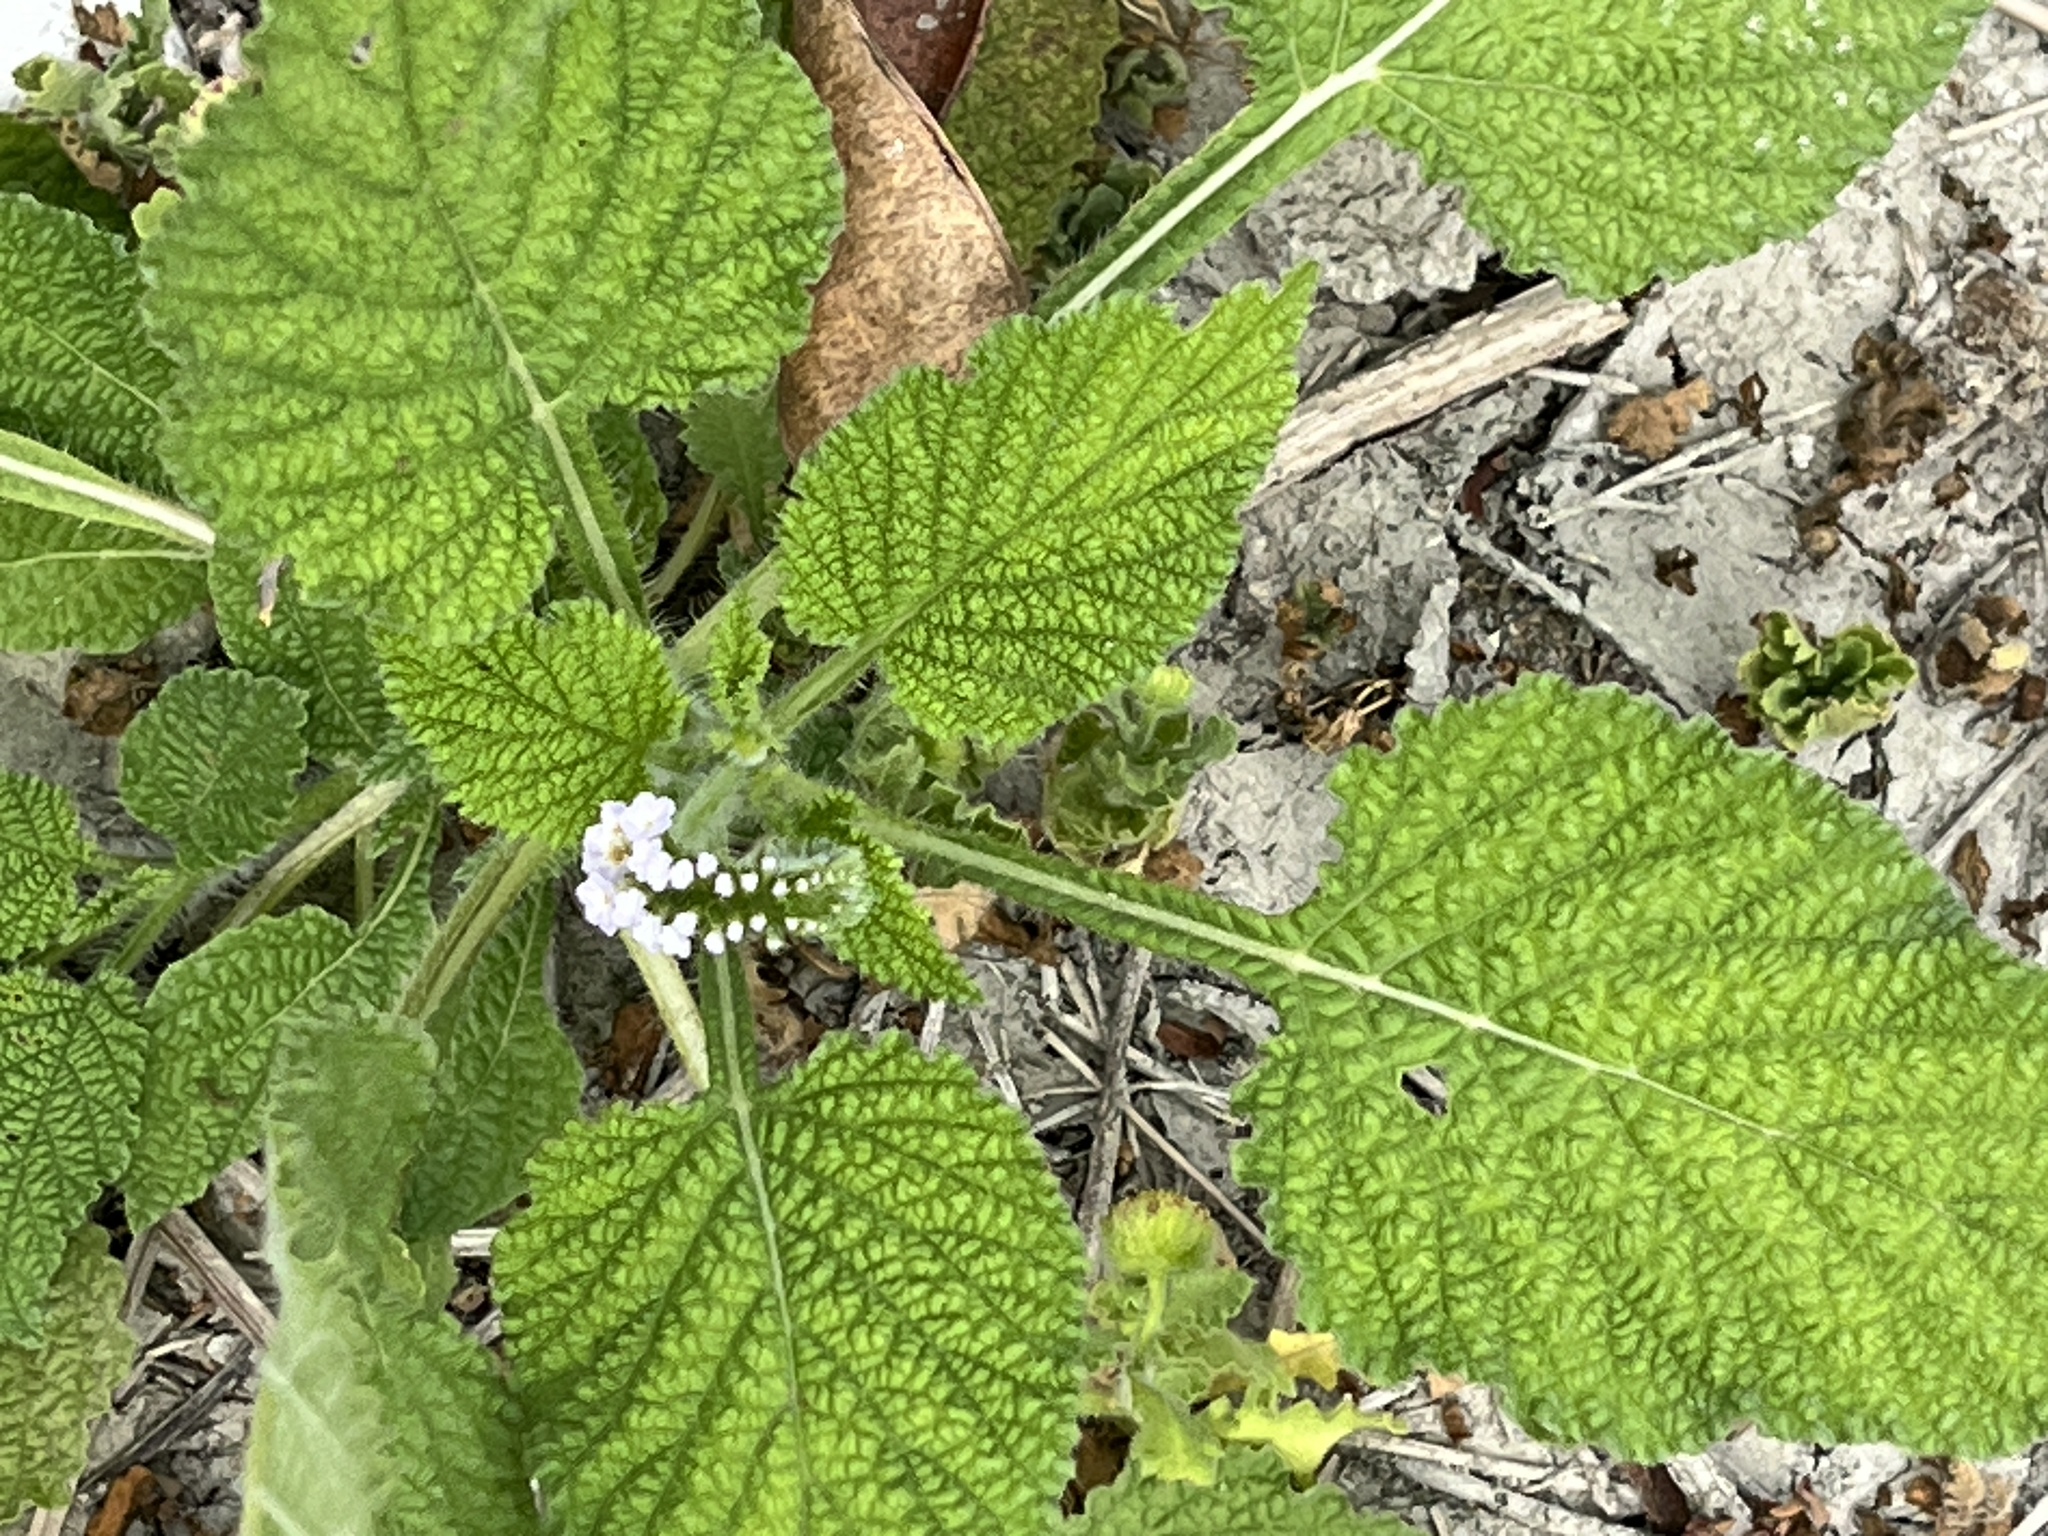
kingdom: Plantae
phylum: Tracheophyta
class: Magnoliopsida
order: Boraginales
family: Heliotropiaceae
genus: Heliotropium
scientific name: Heliotropium indicum
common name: Indian heliotrope
